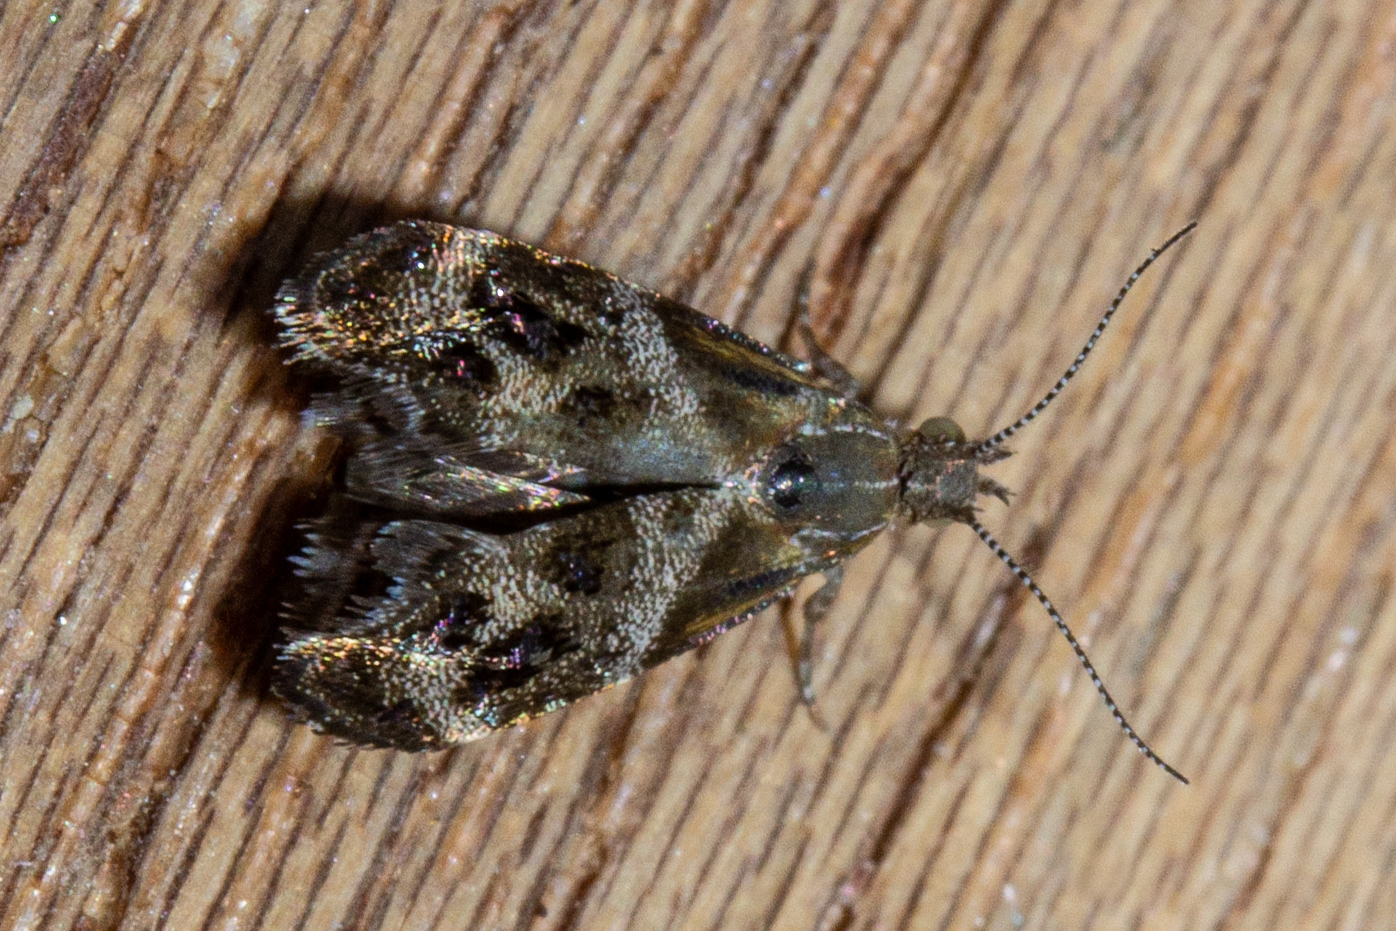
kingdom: Animalia
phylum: Arthropoda
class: Insecta
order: Lepidoptera
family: Choreutidae
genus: Tebenna
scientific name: Tebenna micalis
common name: Vagrant twitcher
